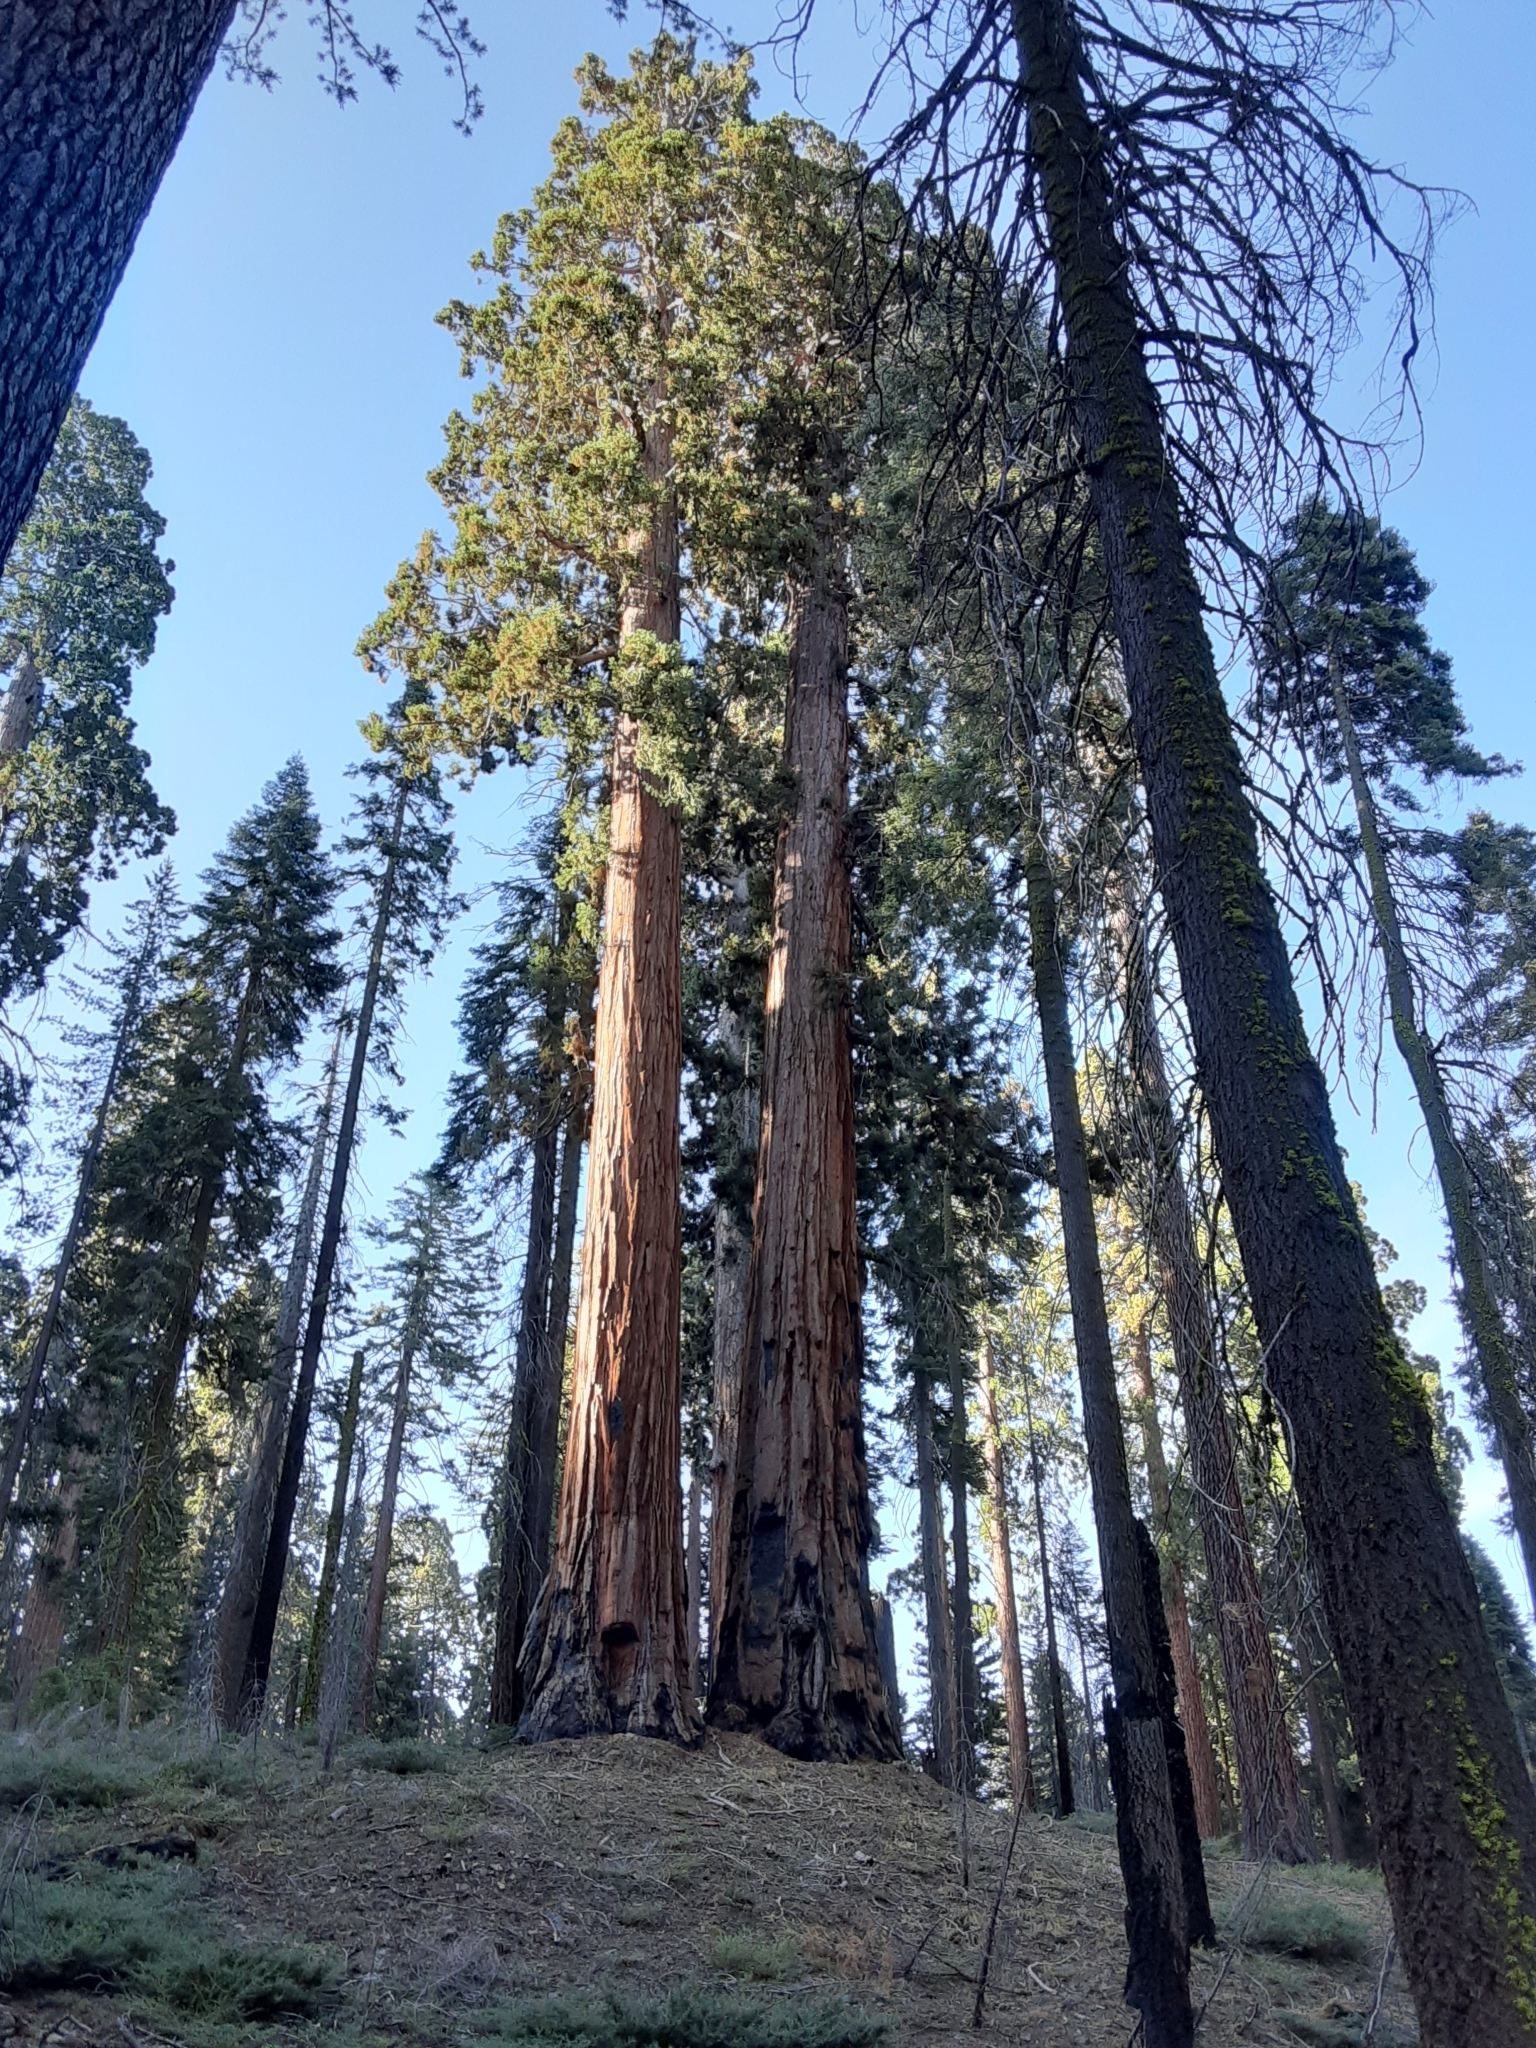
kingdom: Plantae
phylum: Tracheophyta
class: Pinopsida
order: Pinales
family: Cupressaceae
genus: Sequoiadendron
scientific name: Sequoiadendron giganteum
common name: Wellingtonia
